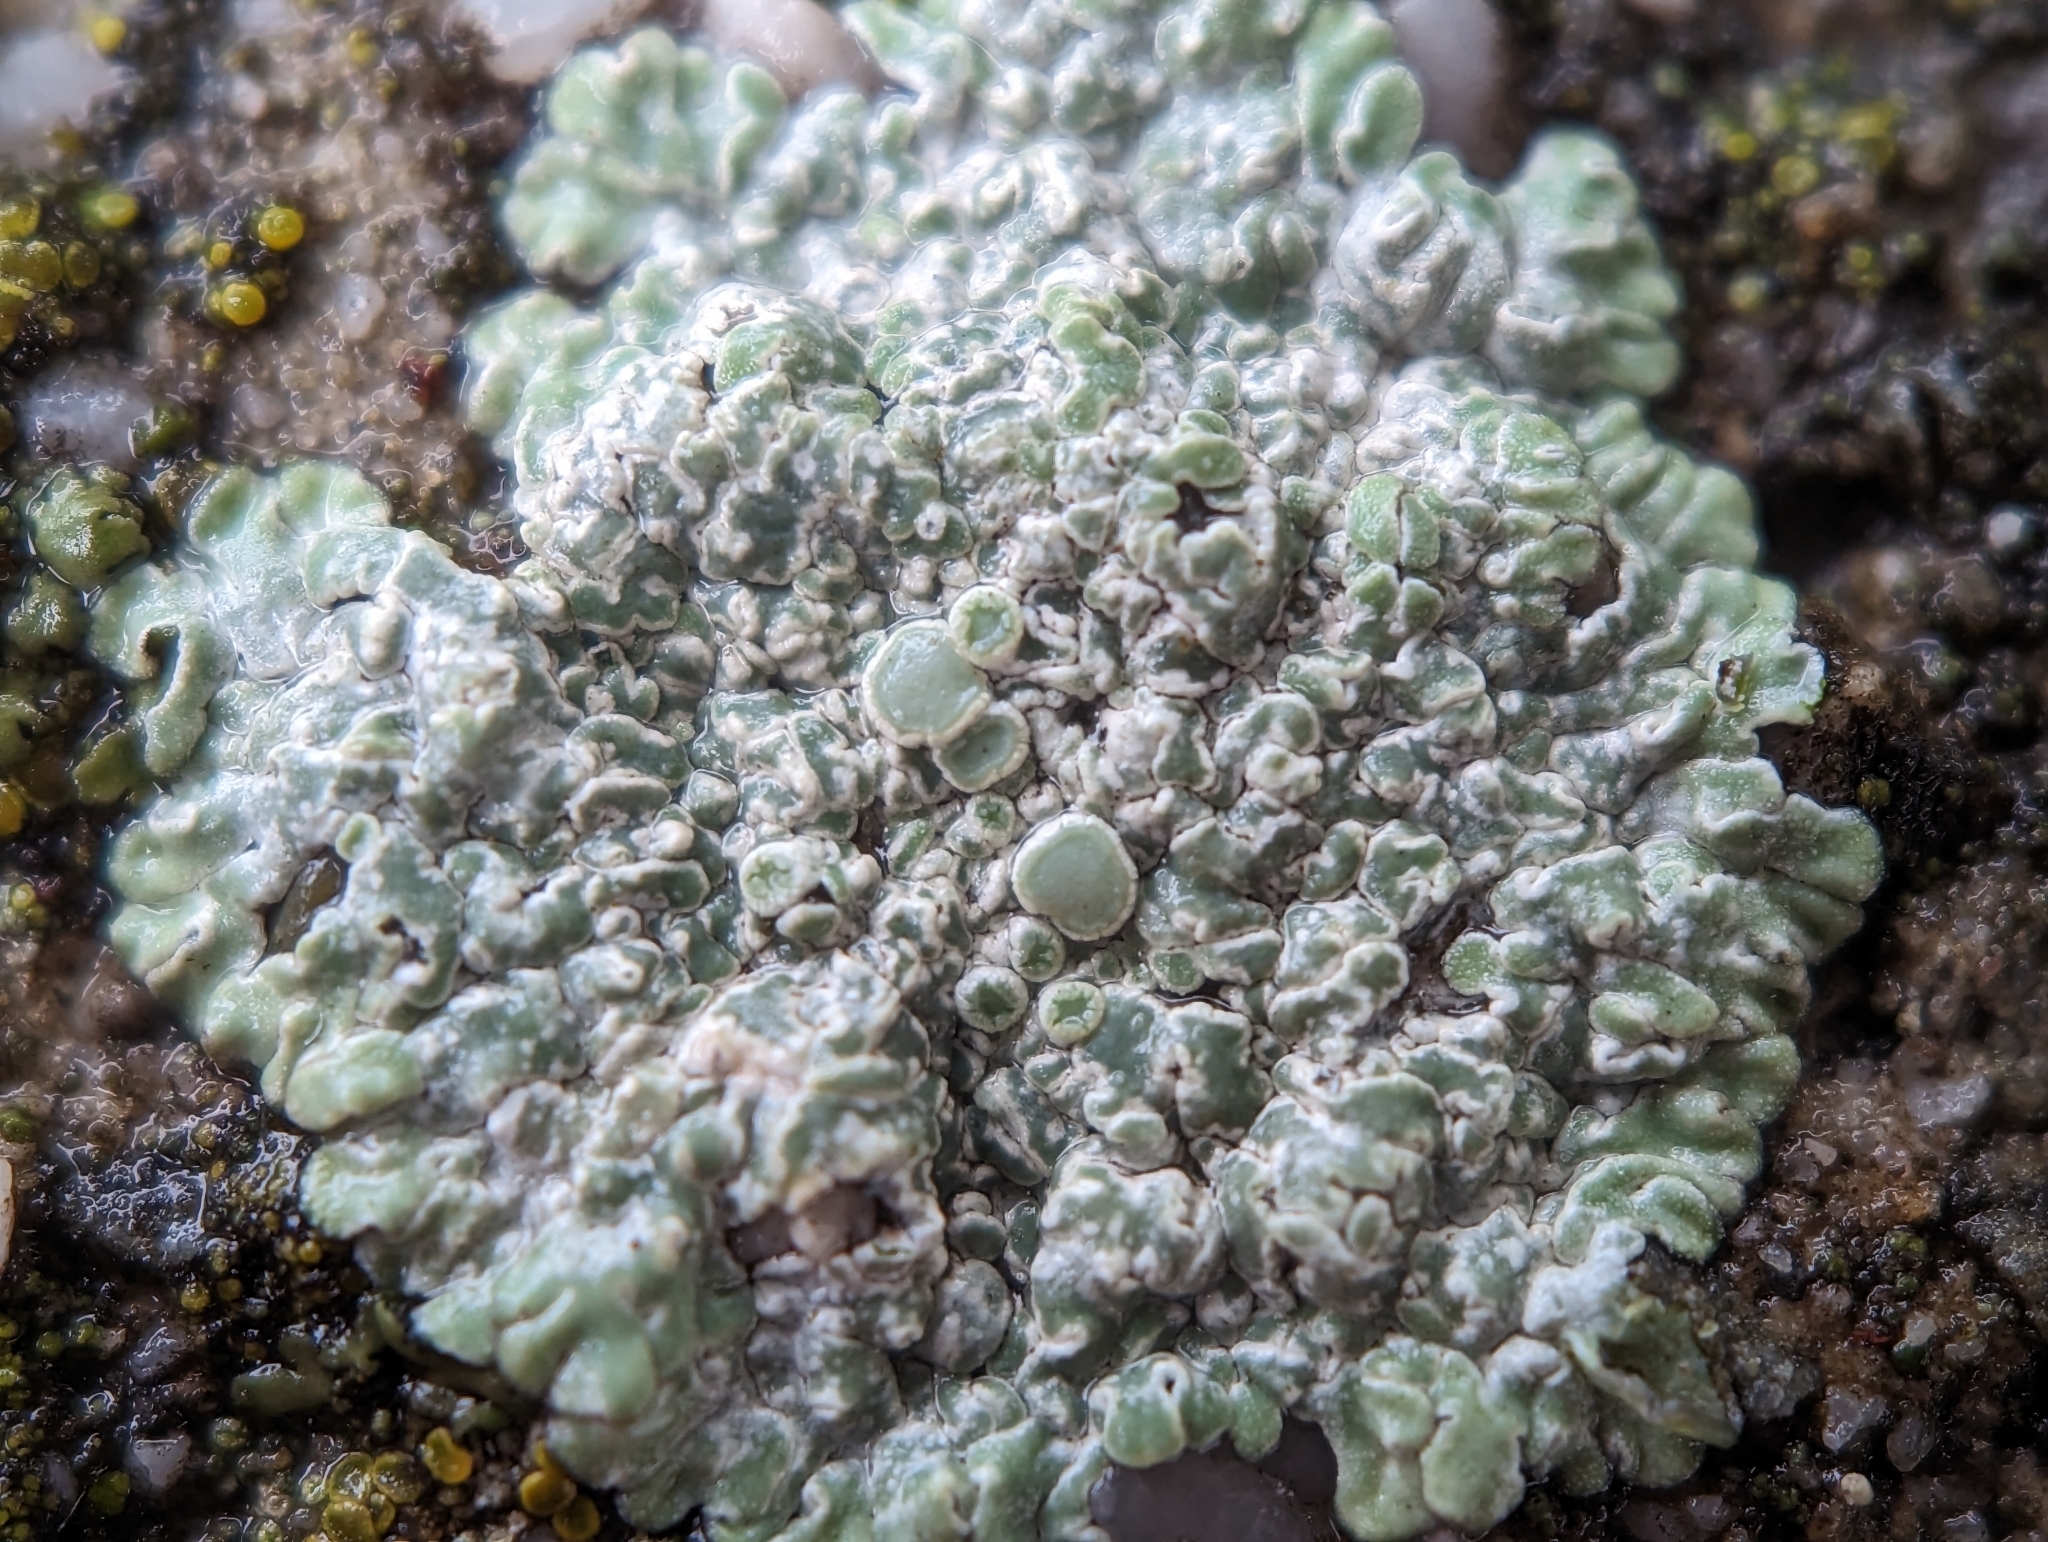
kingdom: Fungi
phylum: Ascomycota
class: Lecanoromycetes
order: Lecanorales
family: Lecanoraceae
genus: Protoparmeliopsis
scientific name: Protoparmeliopsis muralis
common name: Stonewall rim lichen
